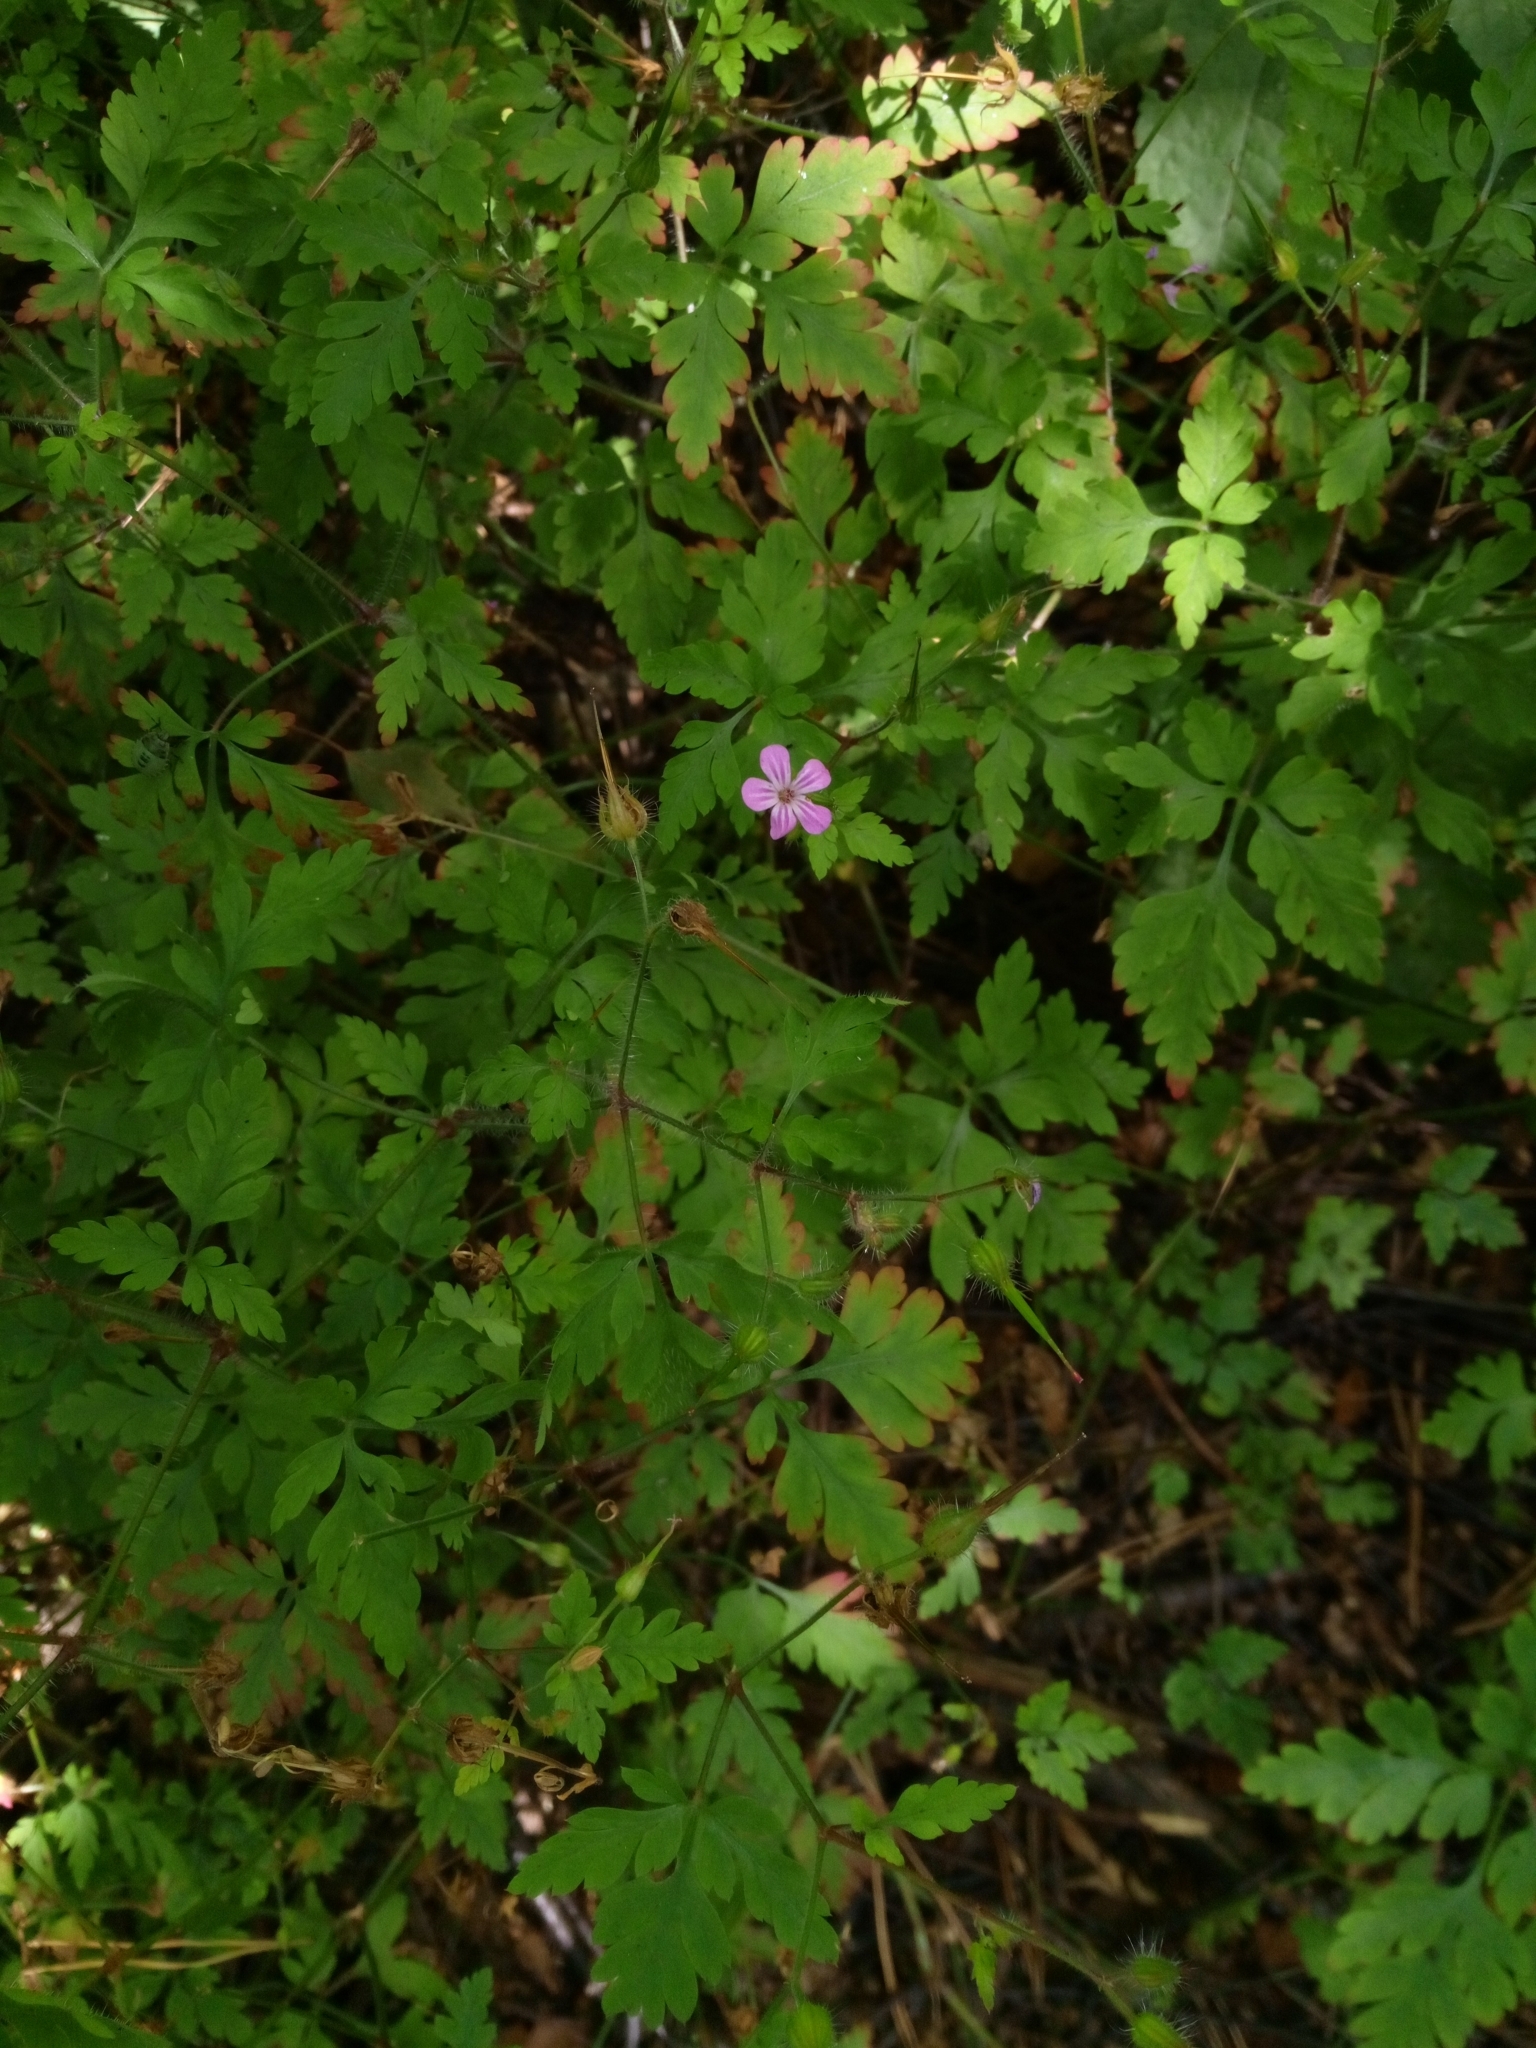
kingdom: Plantae
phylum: Tracheophyta
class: Magnoliopsida
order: Geraniales
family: Geraniaceae
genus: Geranium
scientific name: Geranium robertianum
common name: Herb-robert
